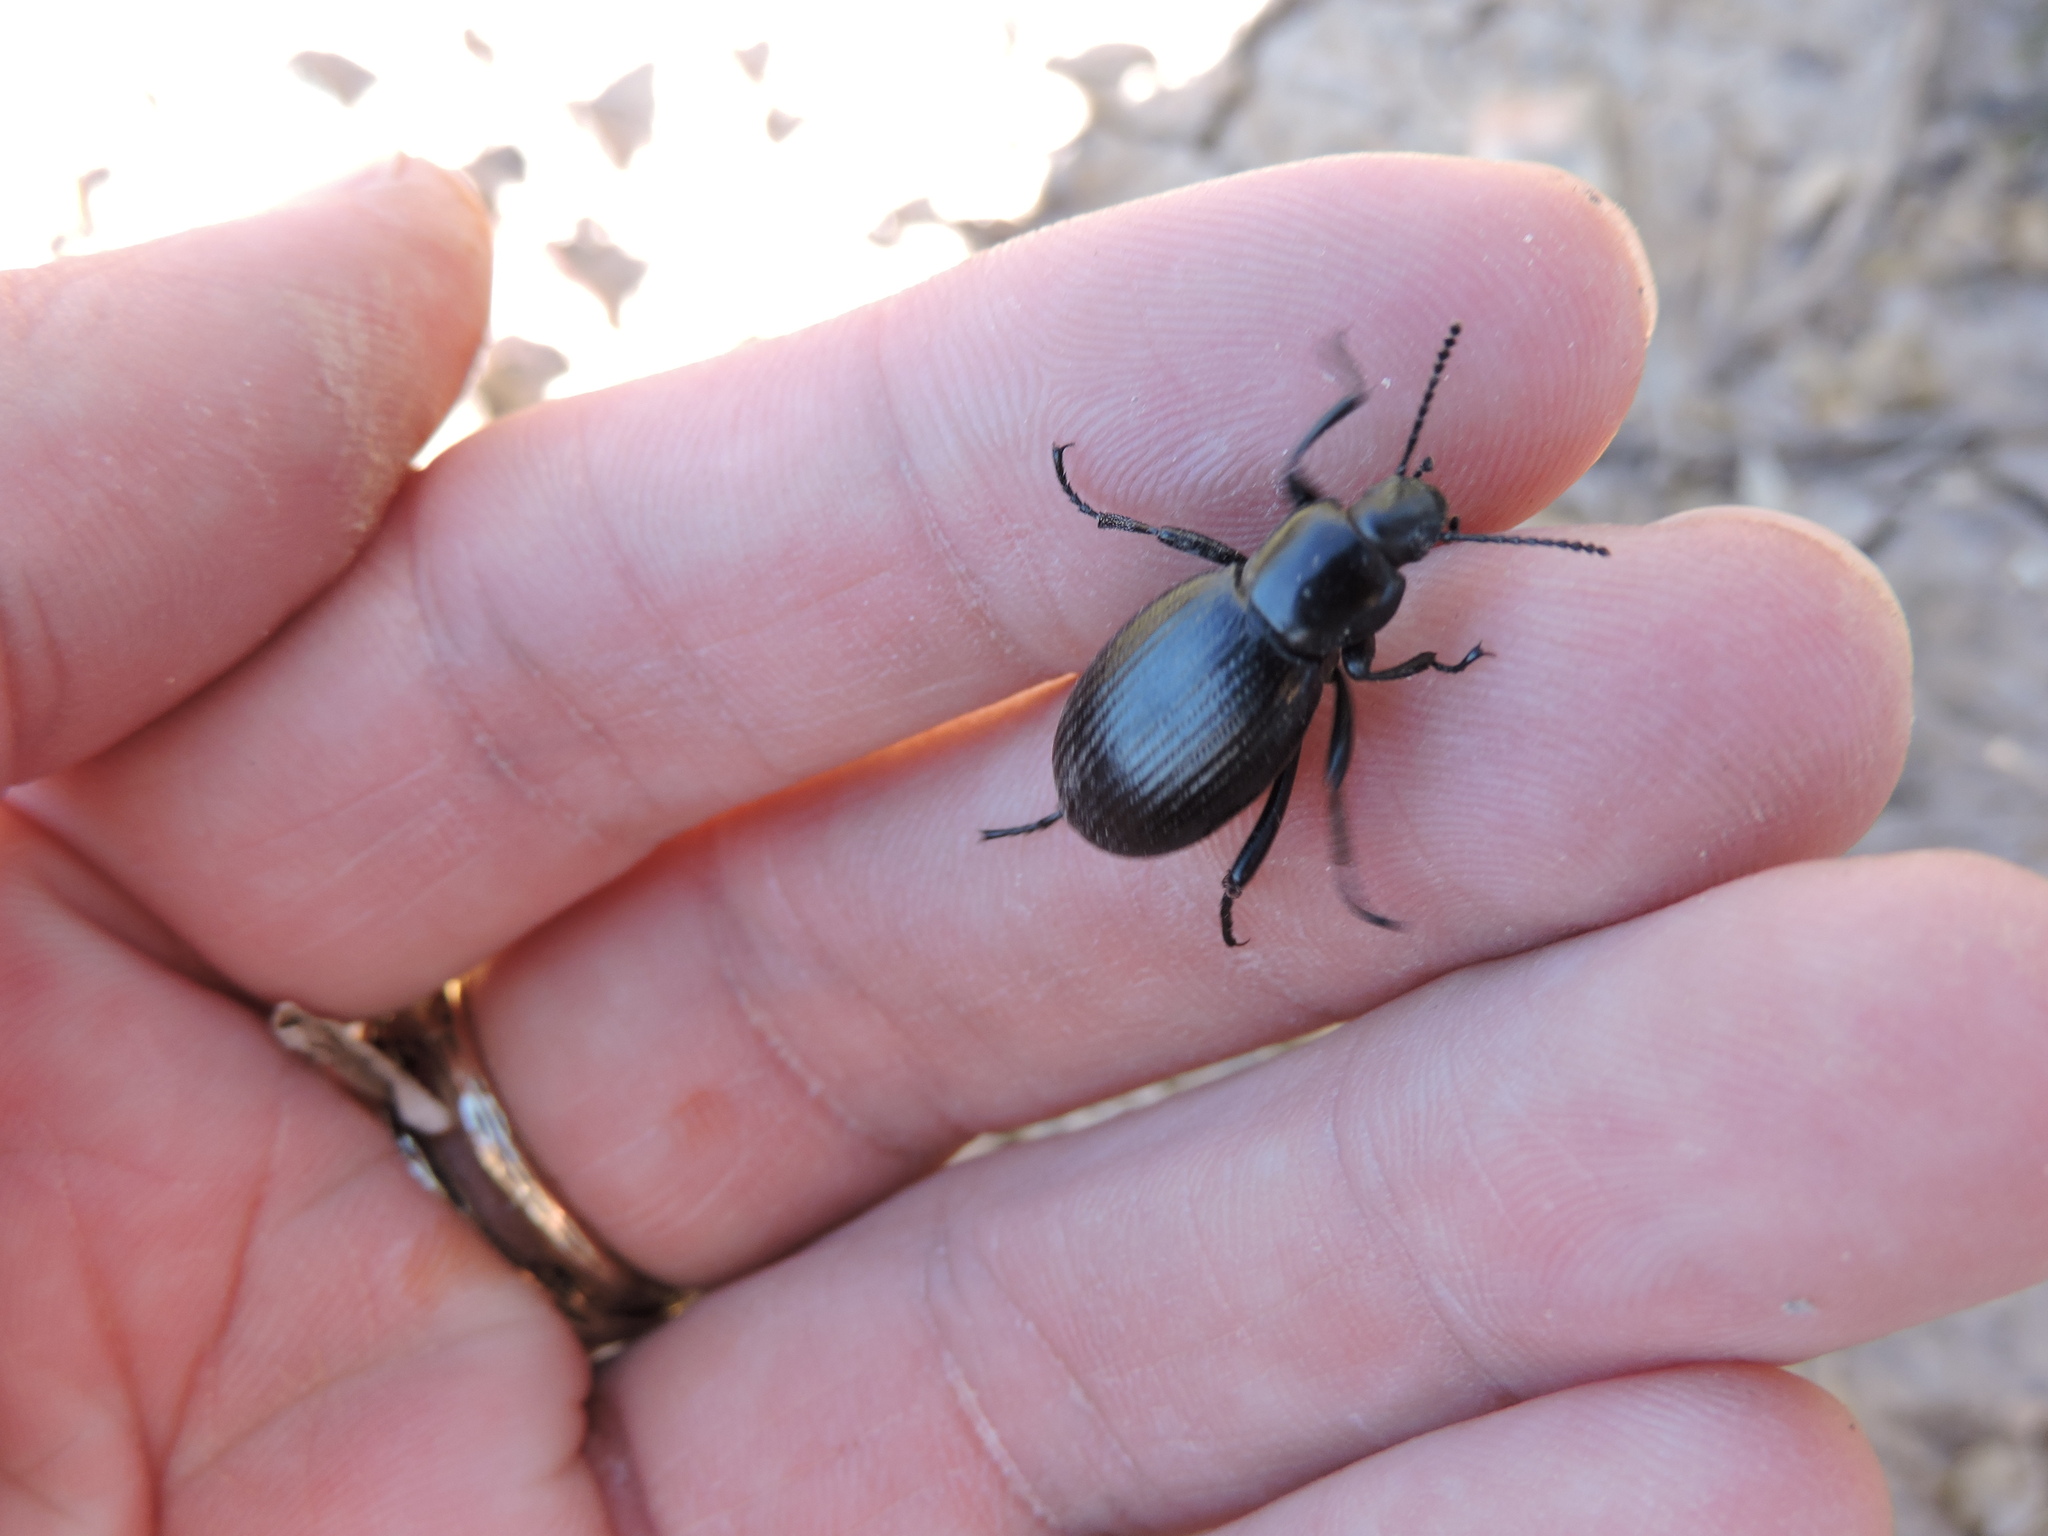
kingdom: Animalia
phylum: Arthropoda
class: Insecta
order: Coleoptera
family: Tenebrionidae
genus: Eleodes
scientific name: Eleodes carbonaria
